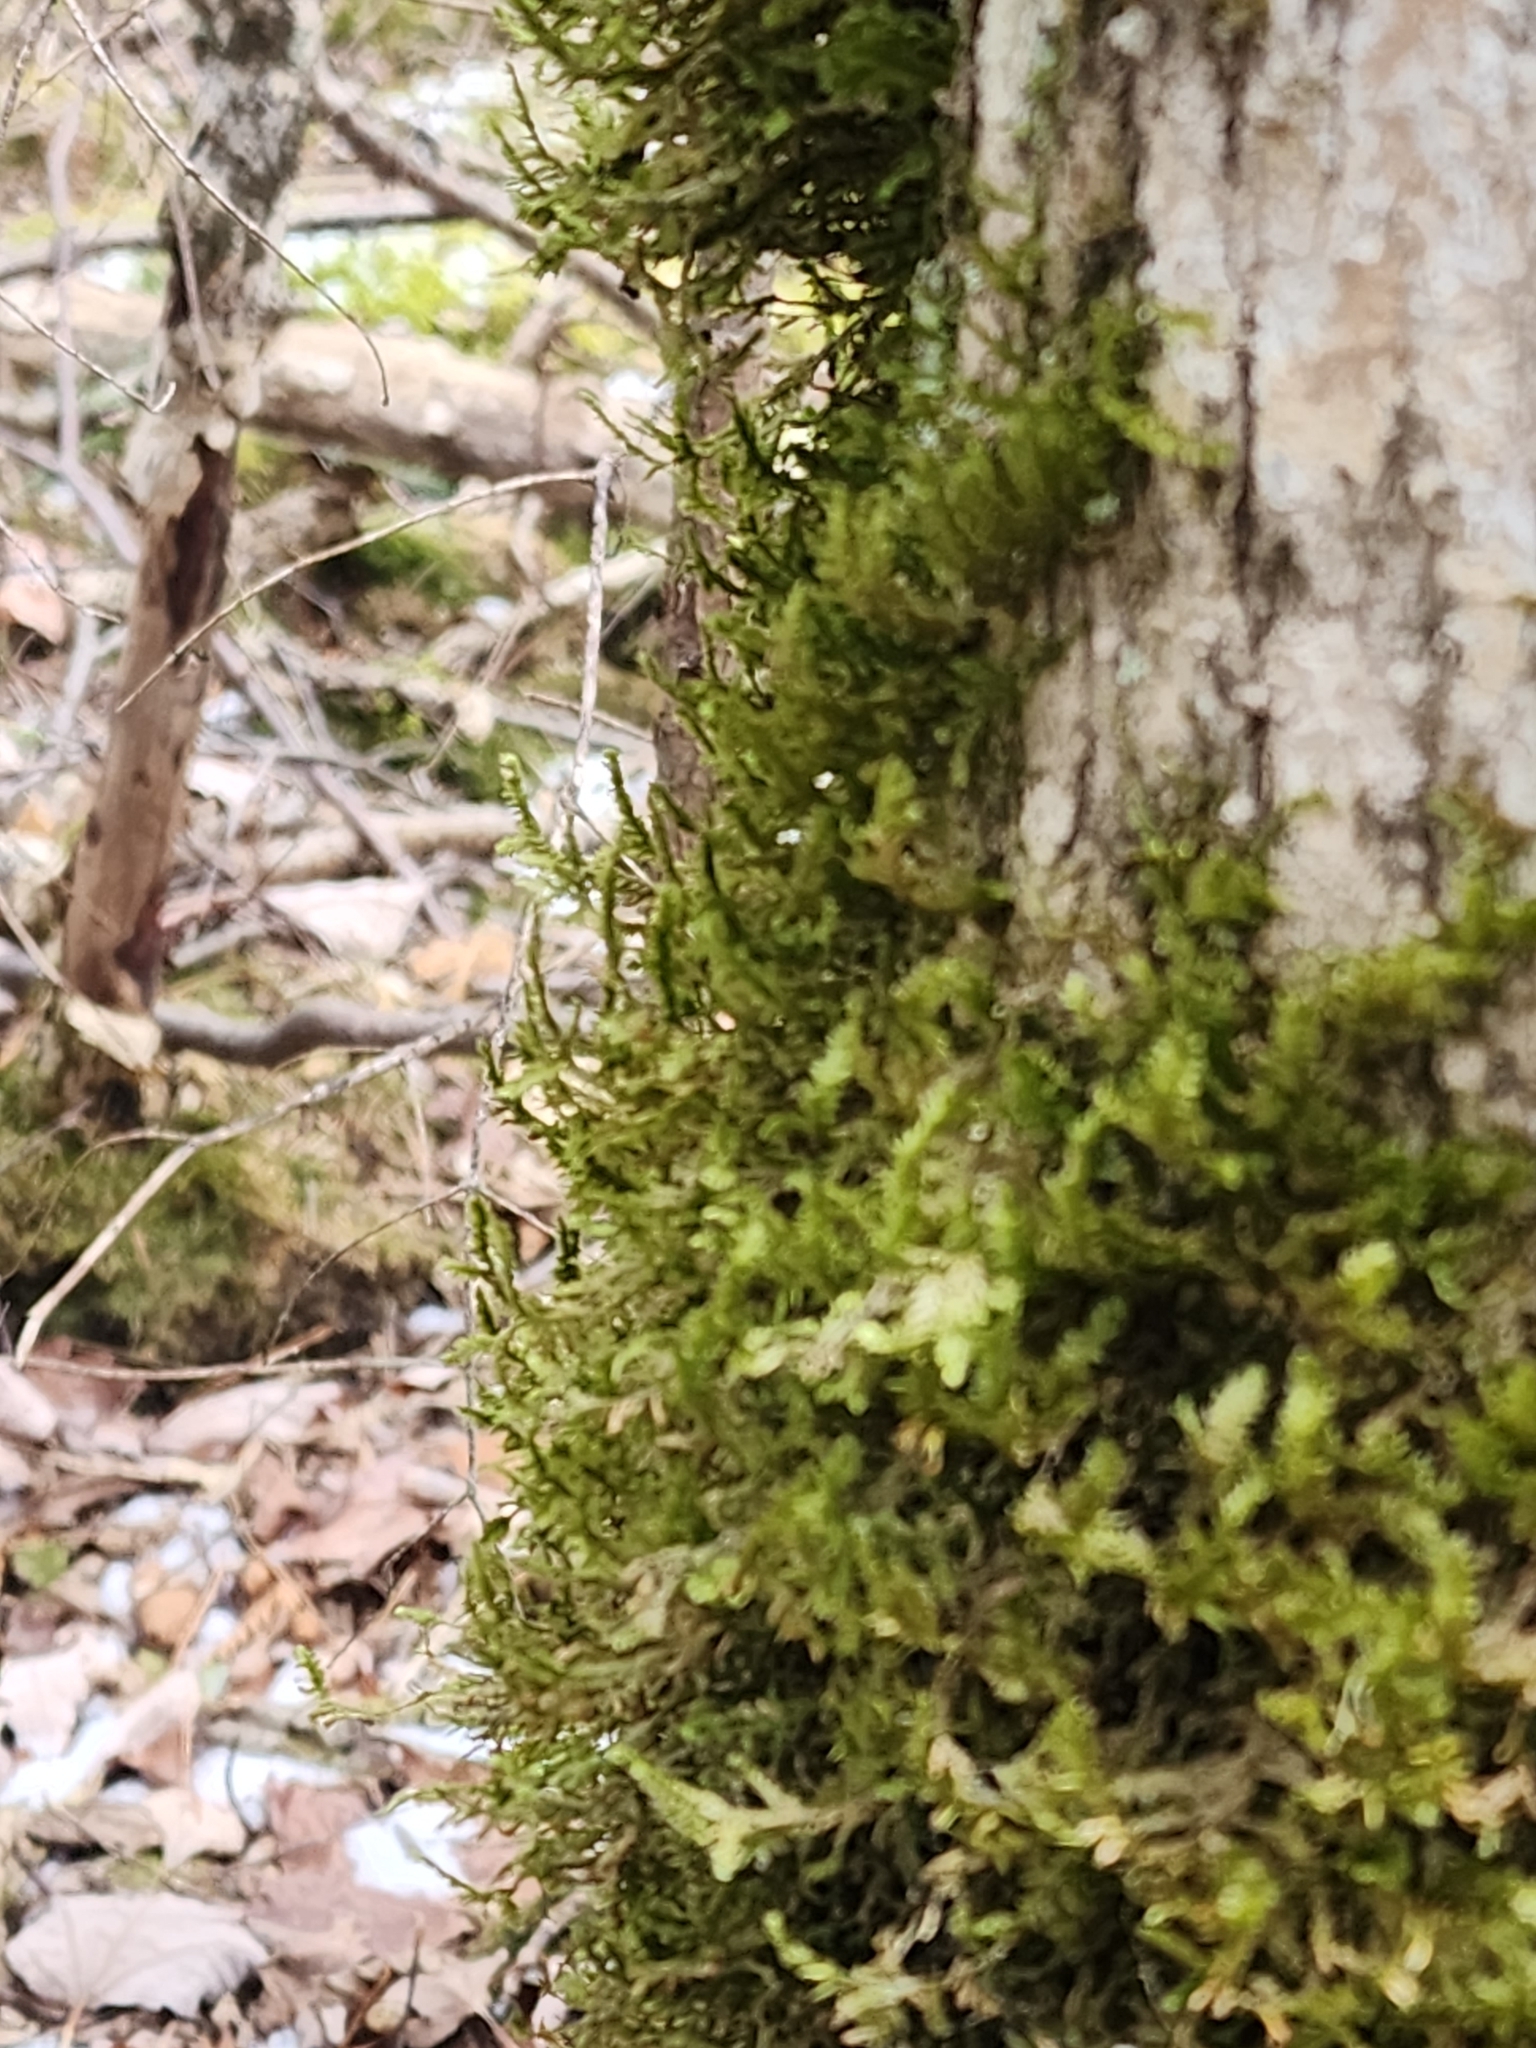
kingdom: Plantae
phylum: Bryophyta
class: Bryopsida
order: Hypnales
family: Neckeraceae
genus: Neckera
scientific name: Neckera pennata
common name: Feathery neckera
